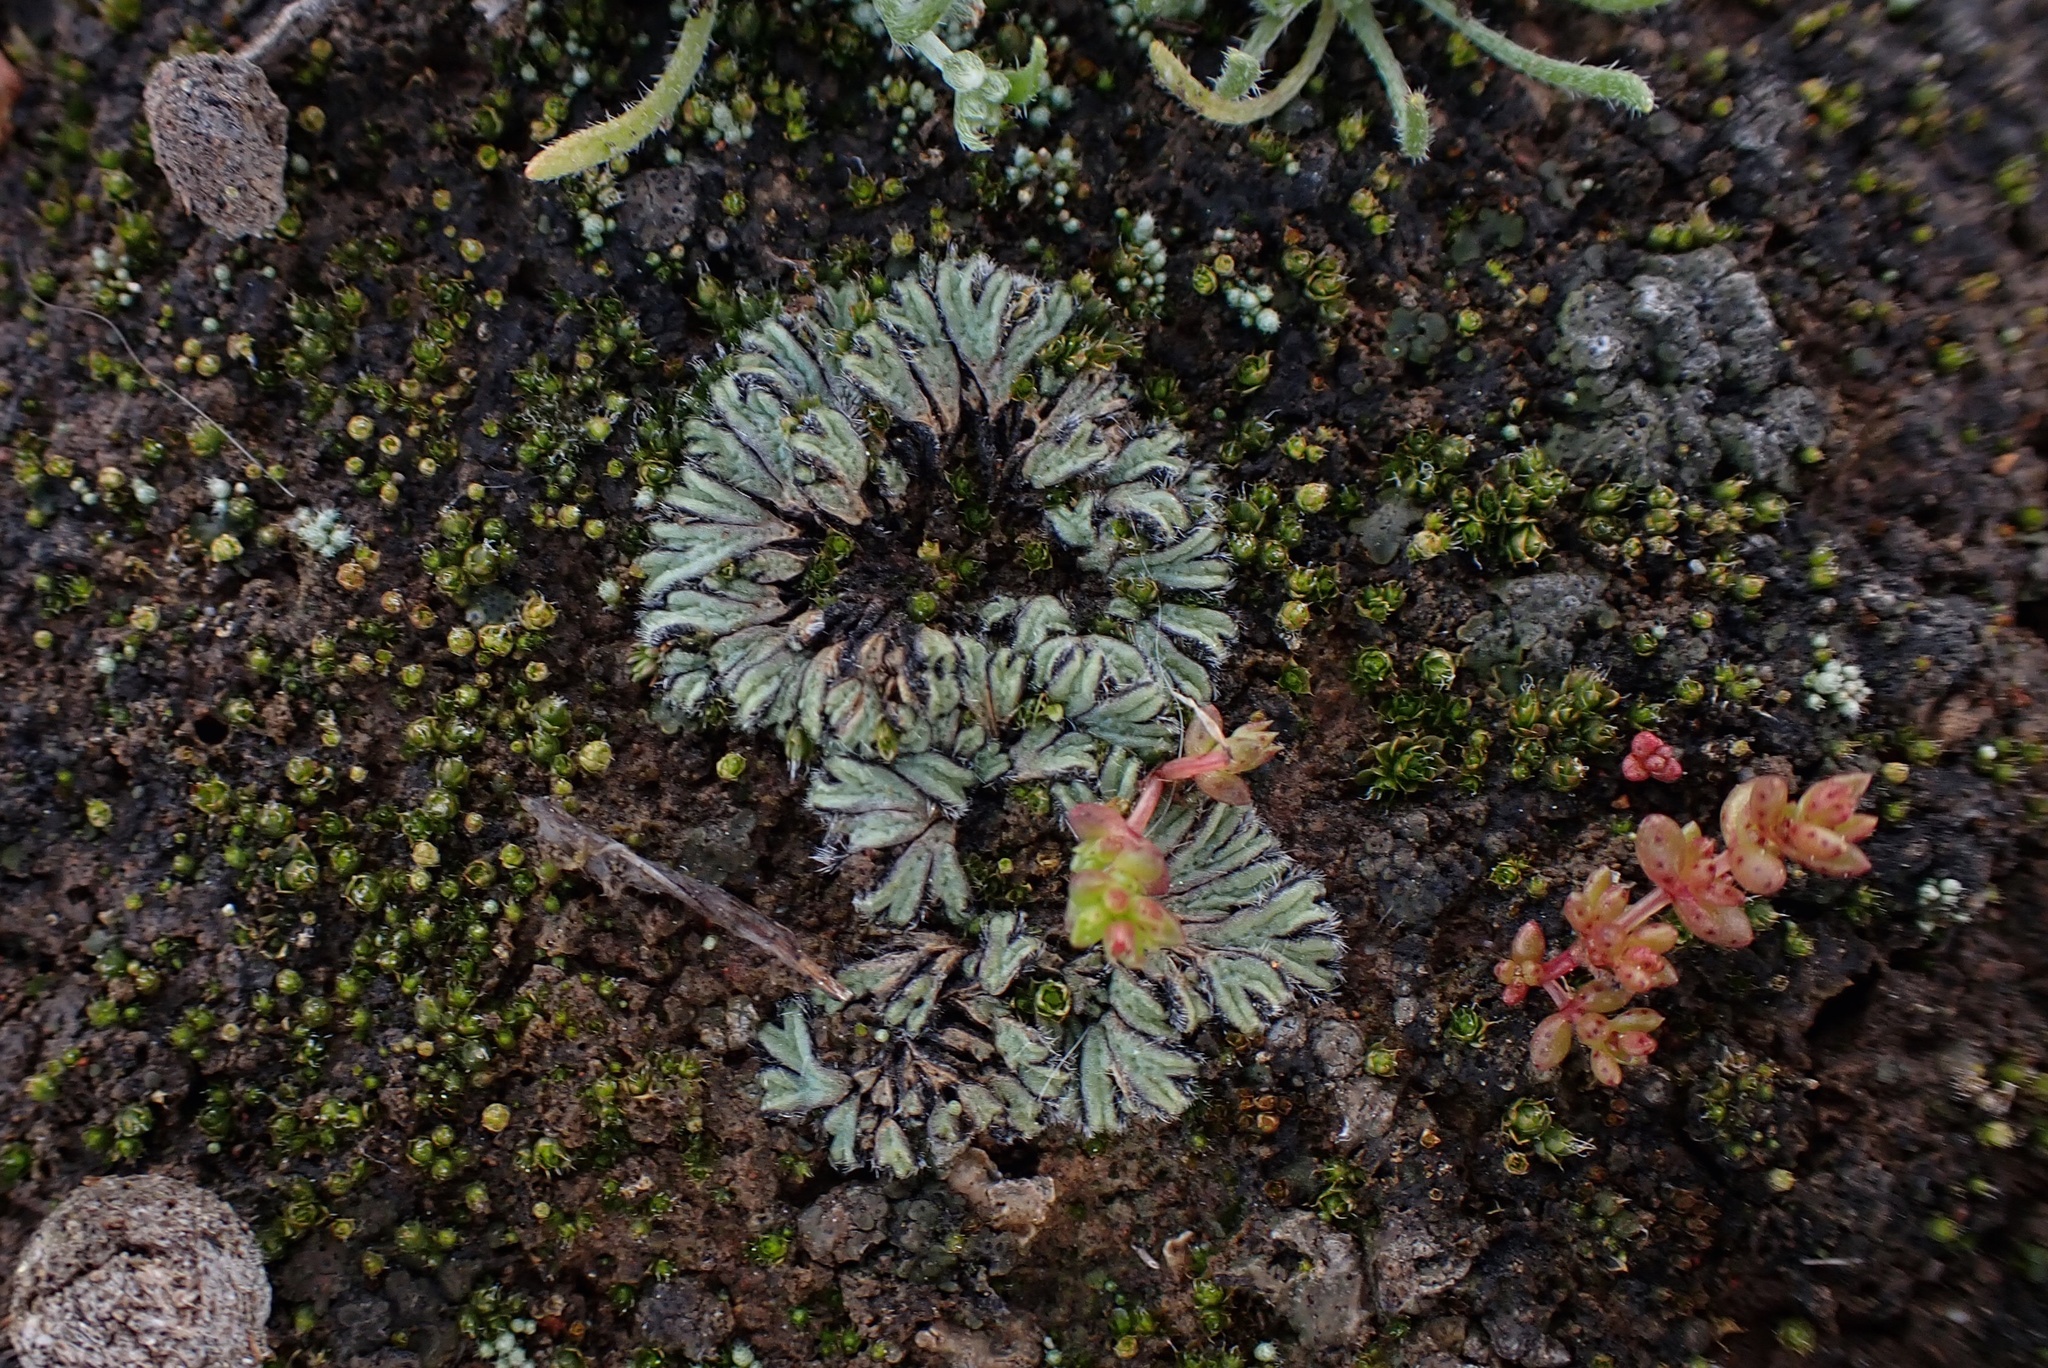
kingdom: Plantae
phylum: Marchantiophyta
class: Marchantiopsida
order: Marchantiales
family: Ricciaceae
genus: Riccia
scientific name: Riccia trichocarpa
